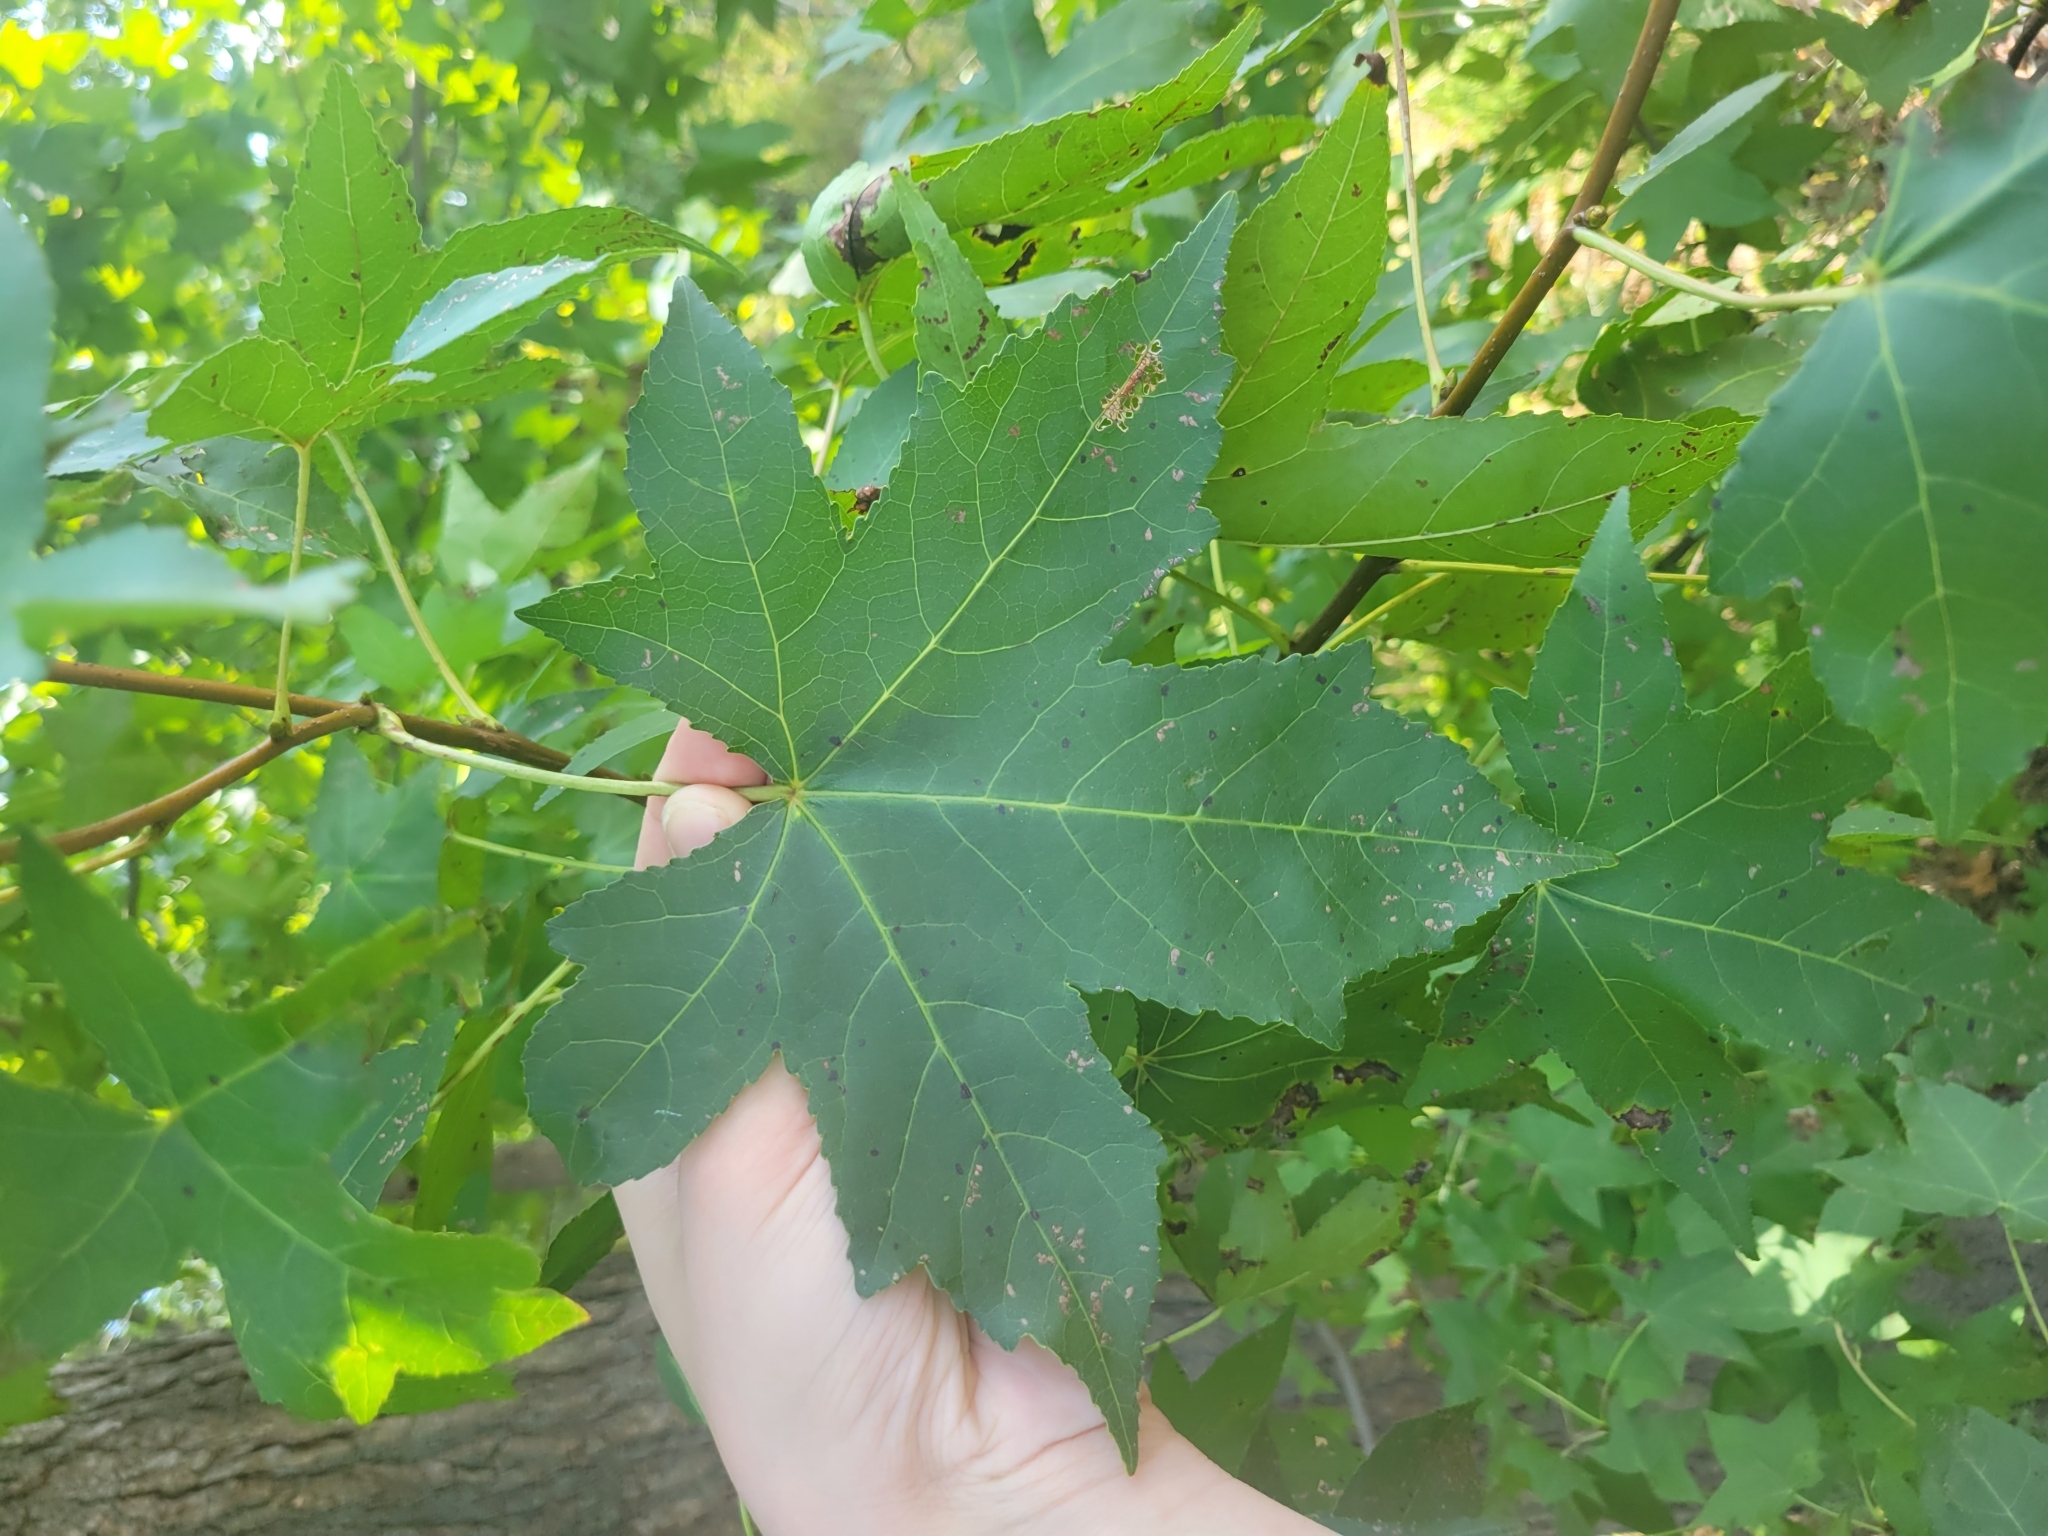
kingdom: Plantae
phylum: Tracheophyta
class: Magnoliopsida
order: Saxifragales
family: Altingiaceae
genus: Liquidambar
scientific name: Liquidambar styraciflua
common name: Sweet gum
